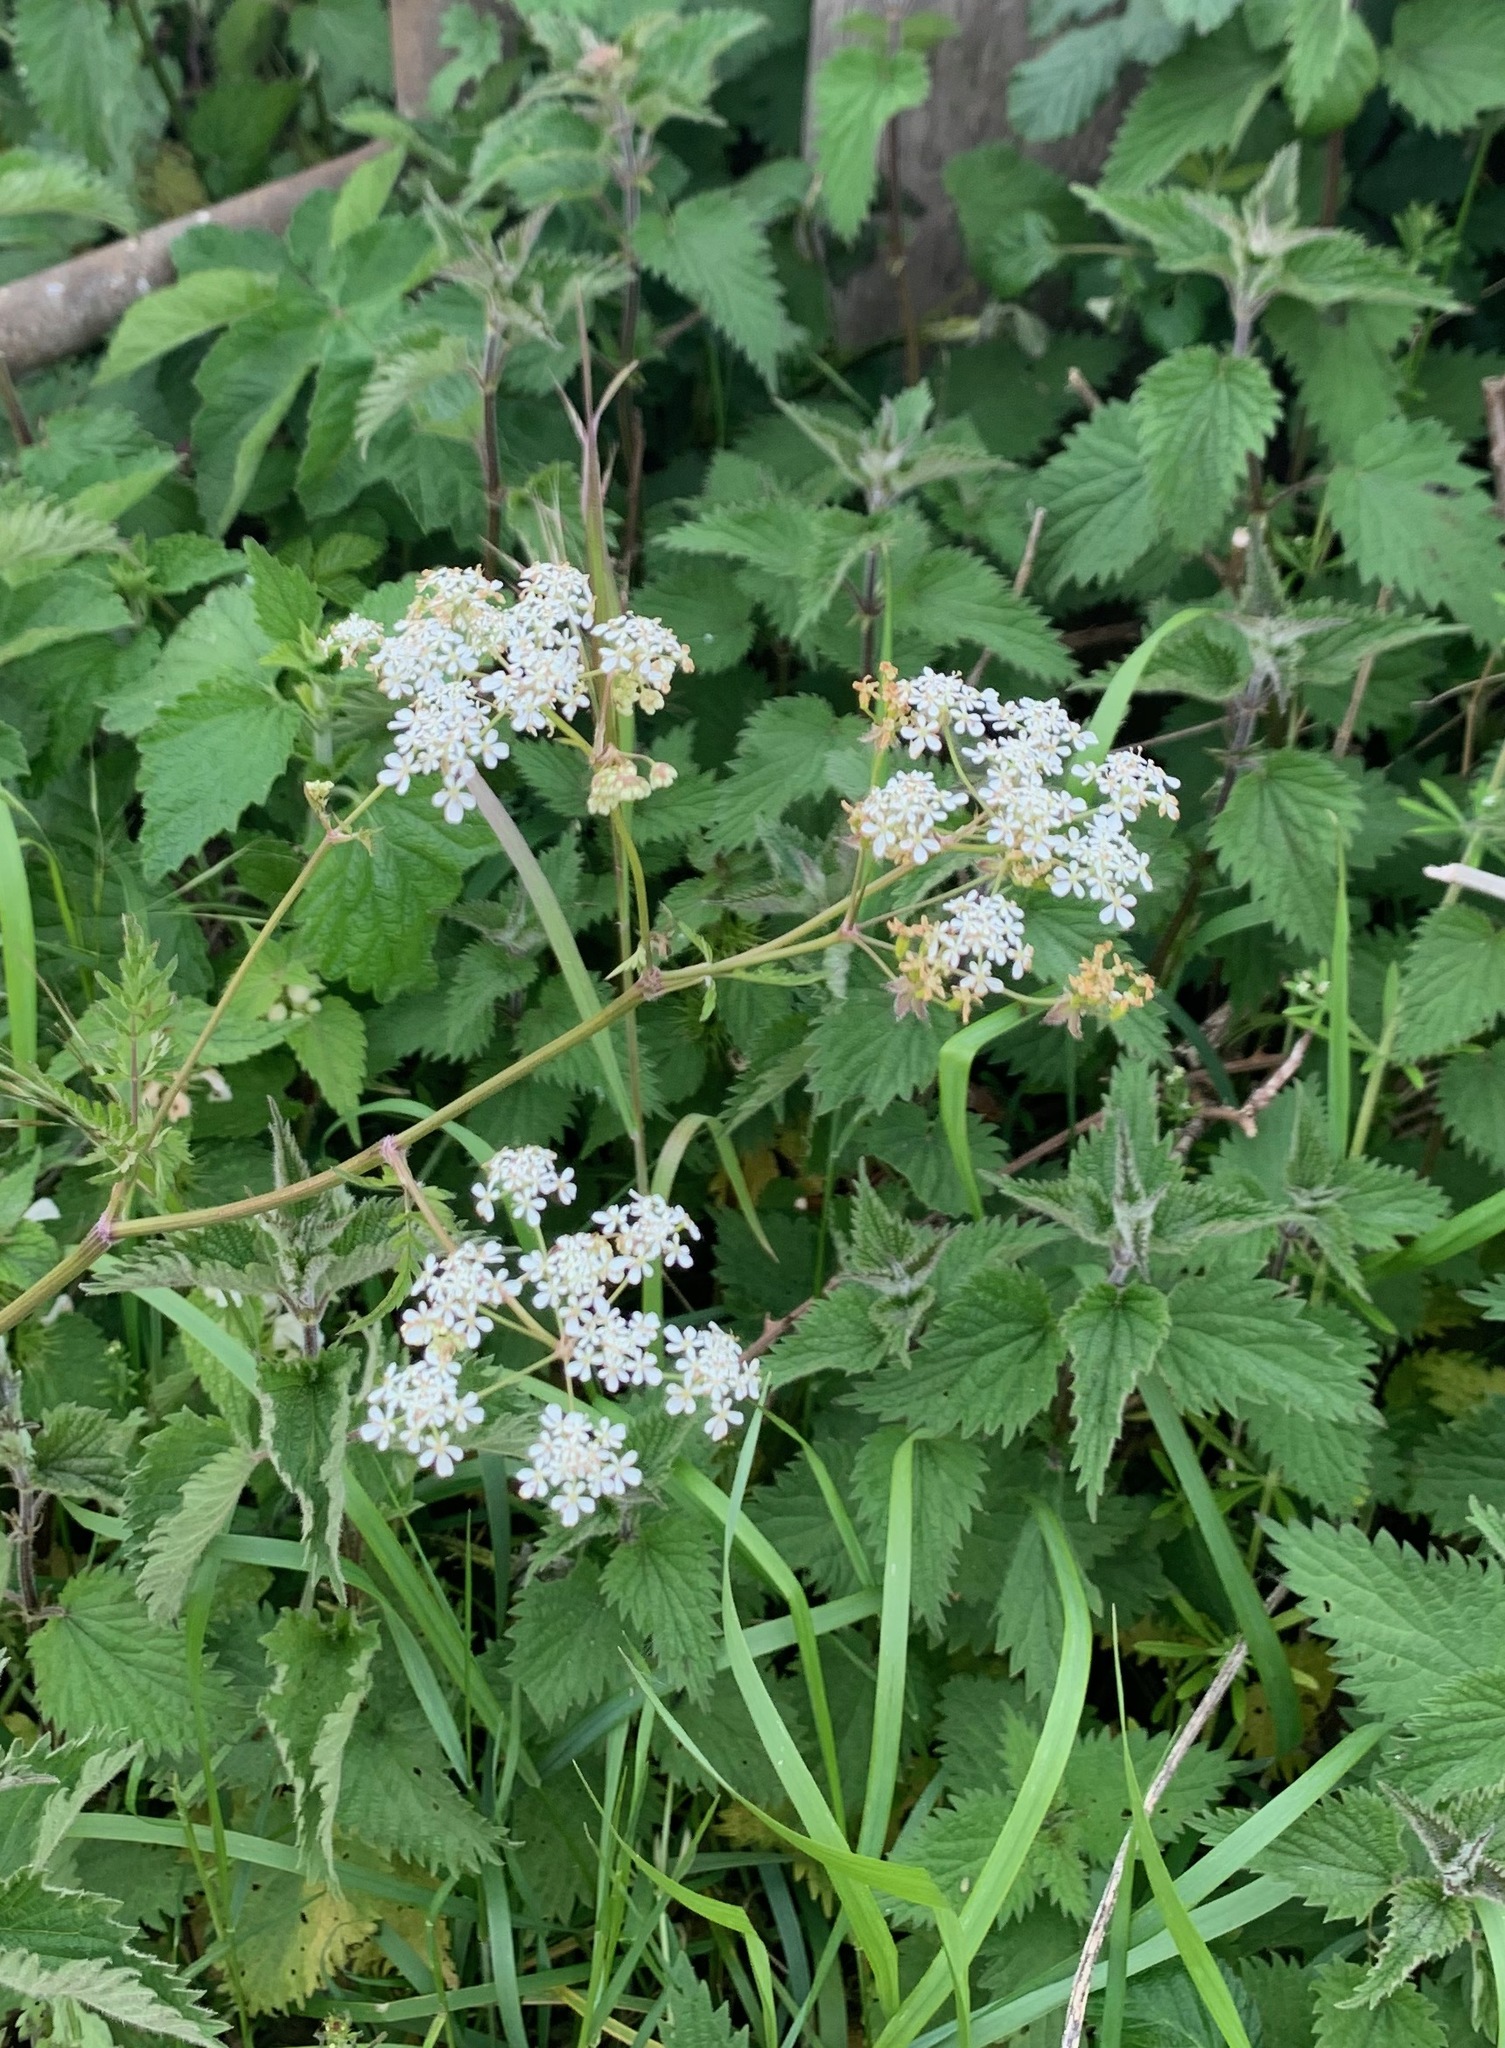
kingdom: Plantae
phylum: Tracheophyta
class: Magnoliopsida
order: Apiales
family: Apiaceae
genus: Anthriscus
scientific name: Anthriscus sylvestris
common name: Cow parsley
